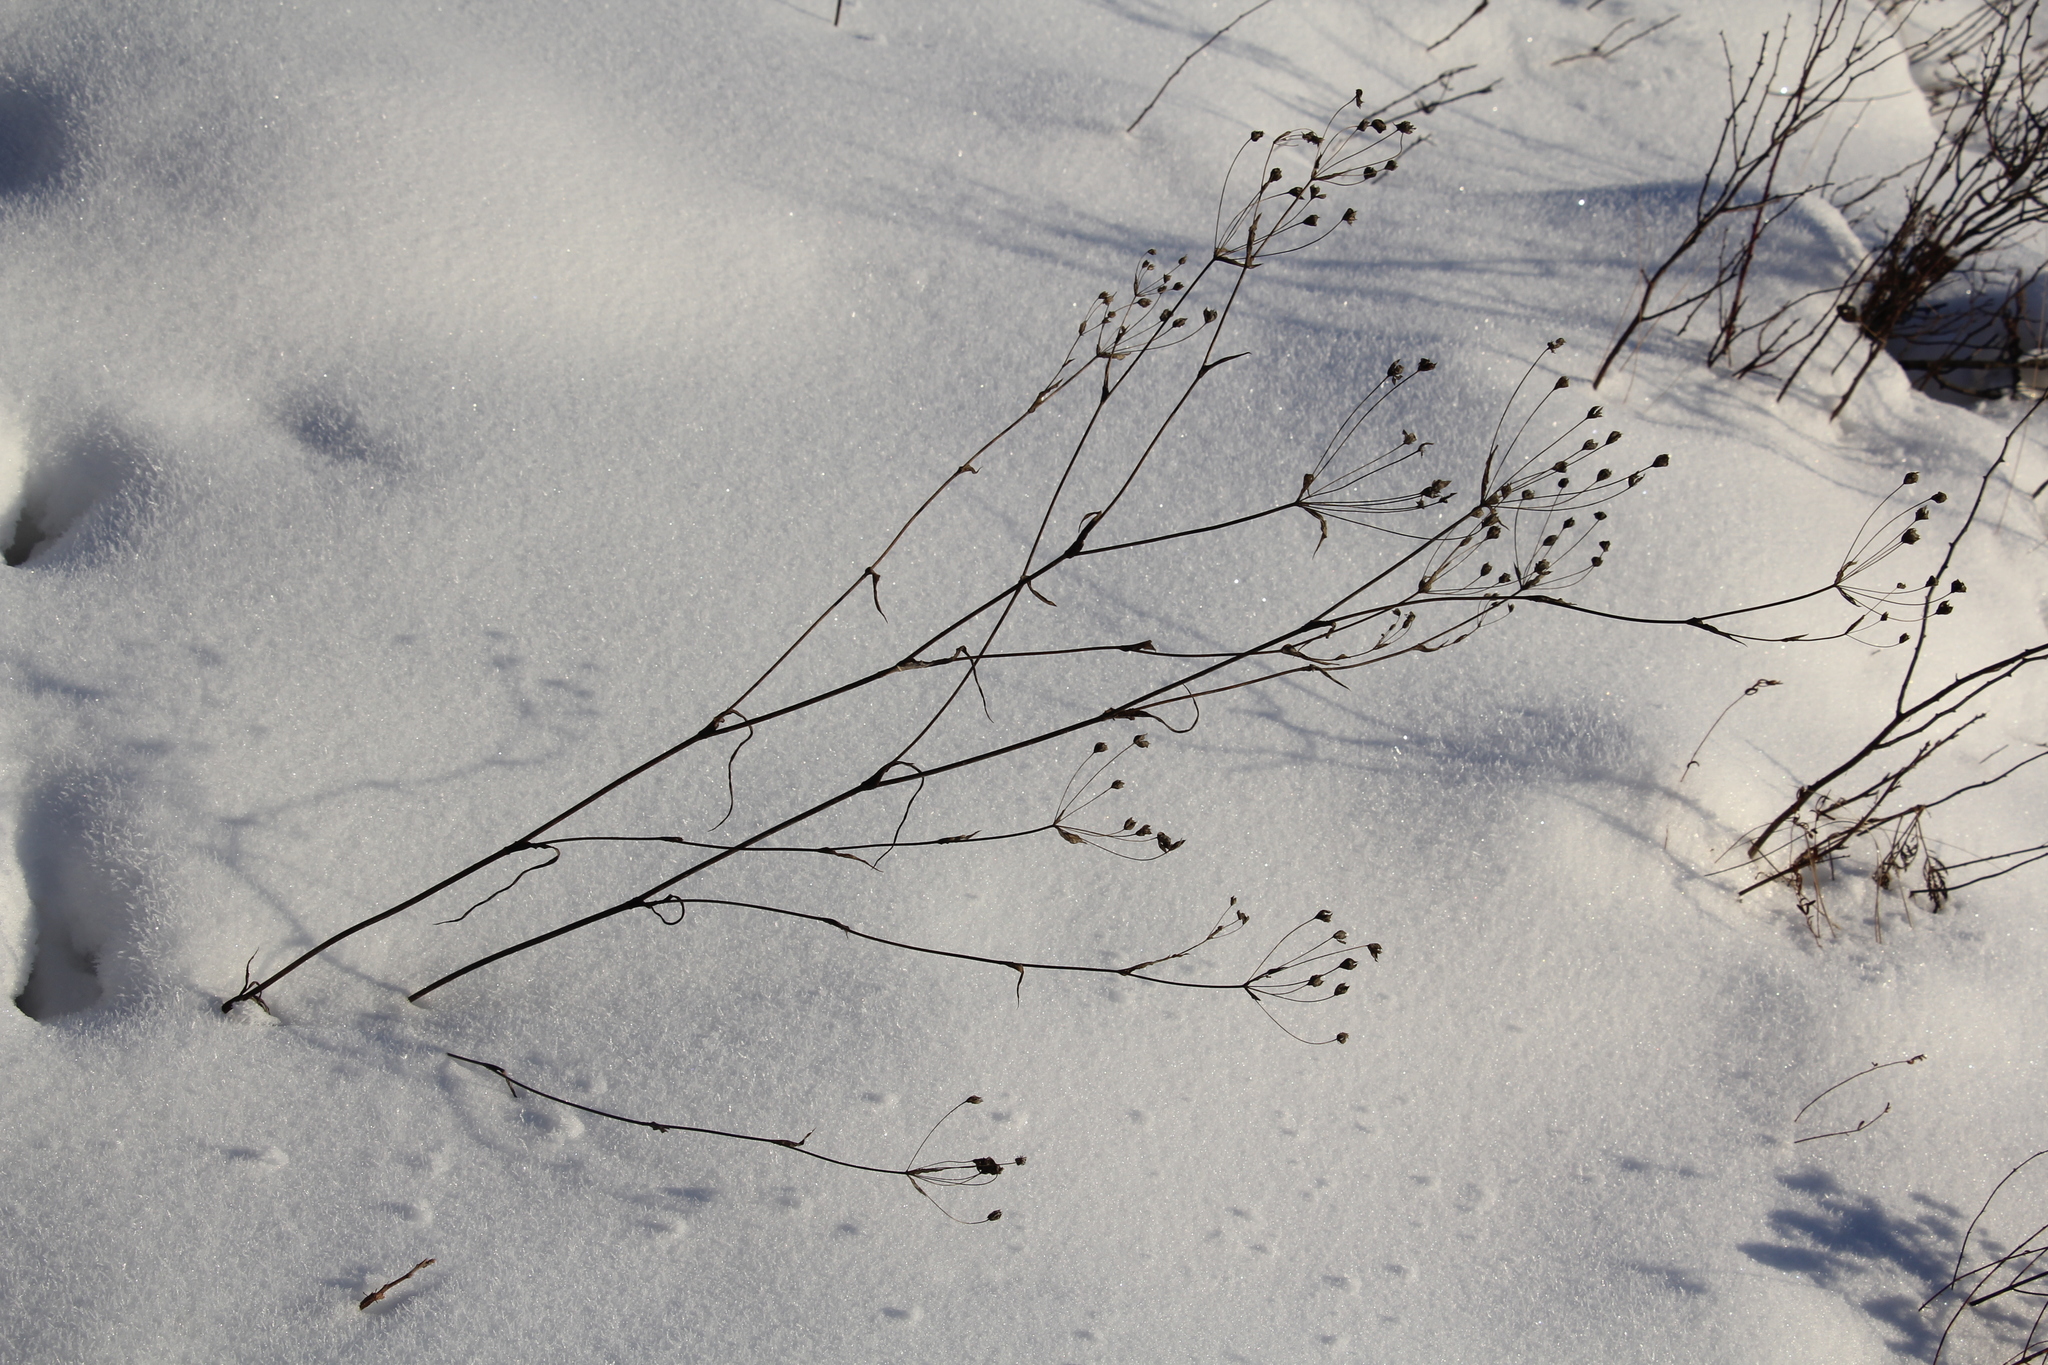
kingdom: Plantae
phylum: Tracheophyta
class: Magnoliopsida
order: Apiales
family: Apiaceae
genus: Bupleurum
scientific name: Bupleurum multinerve
